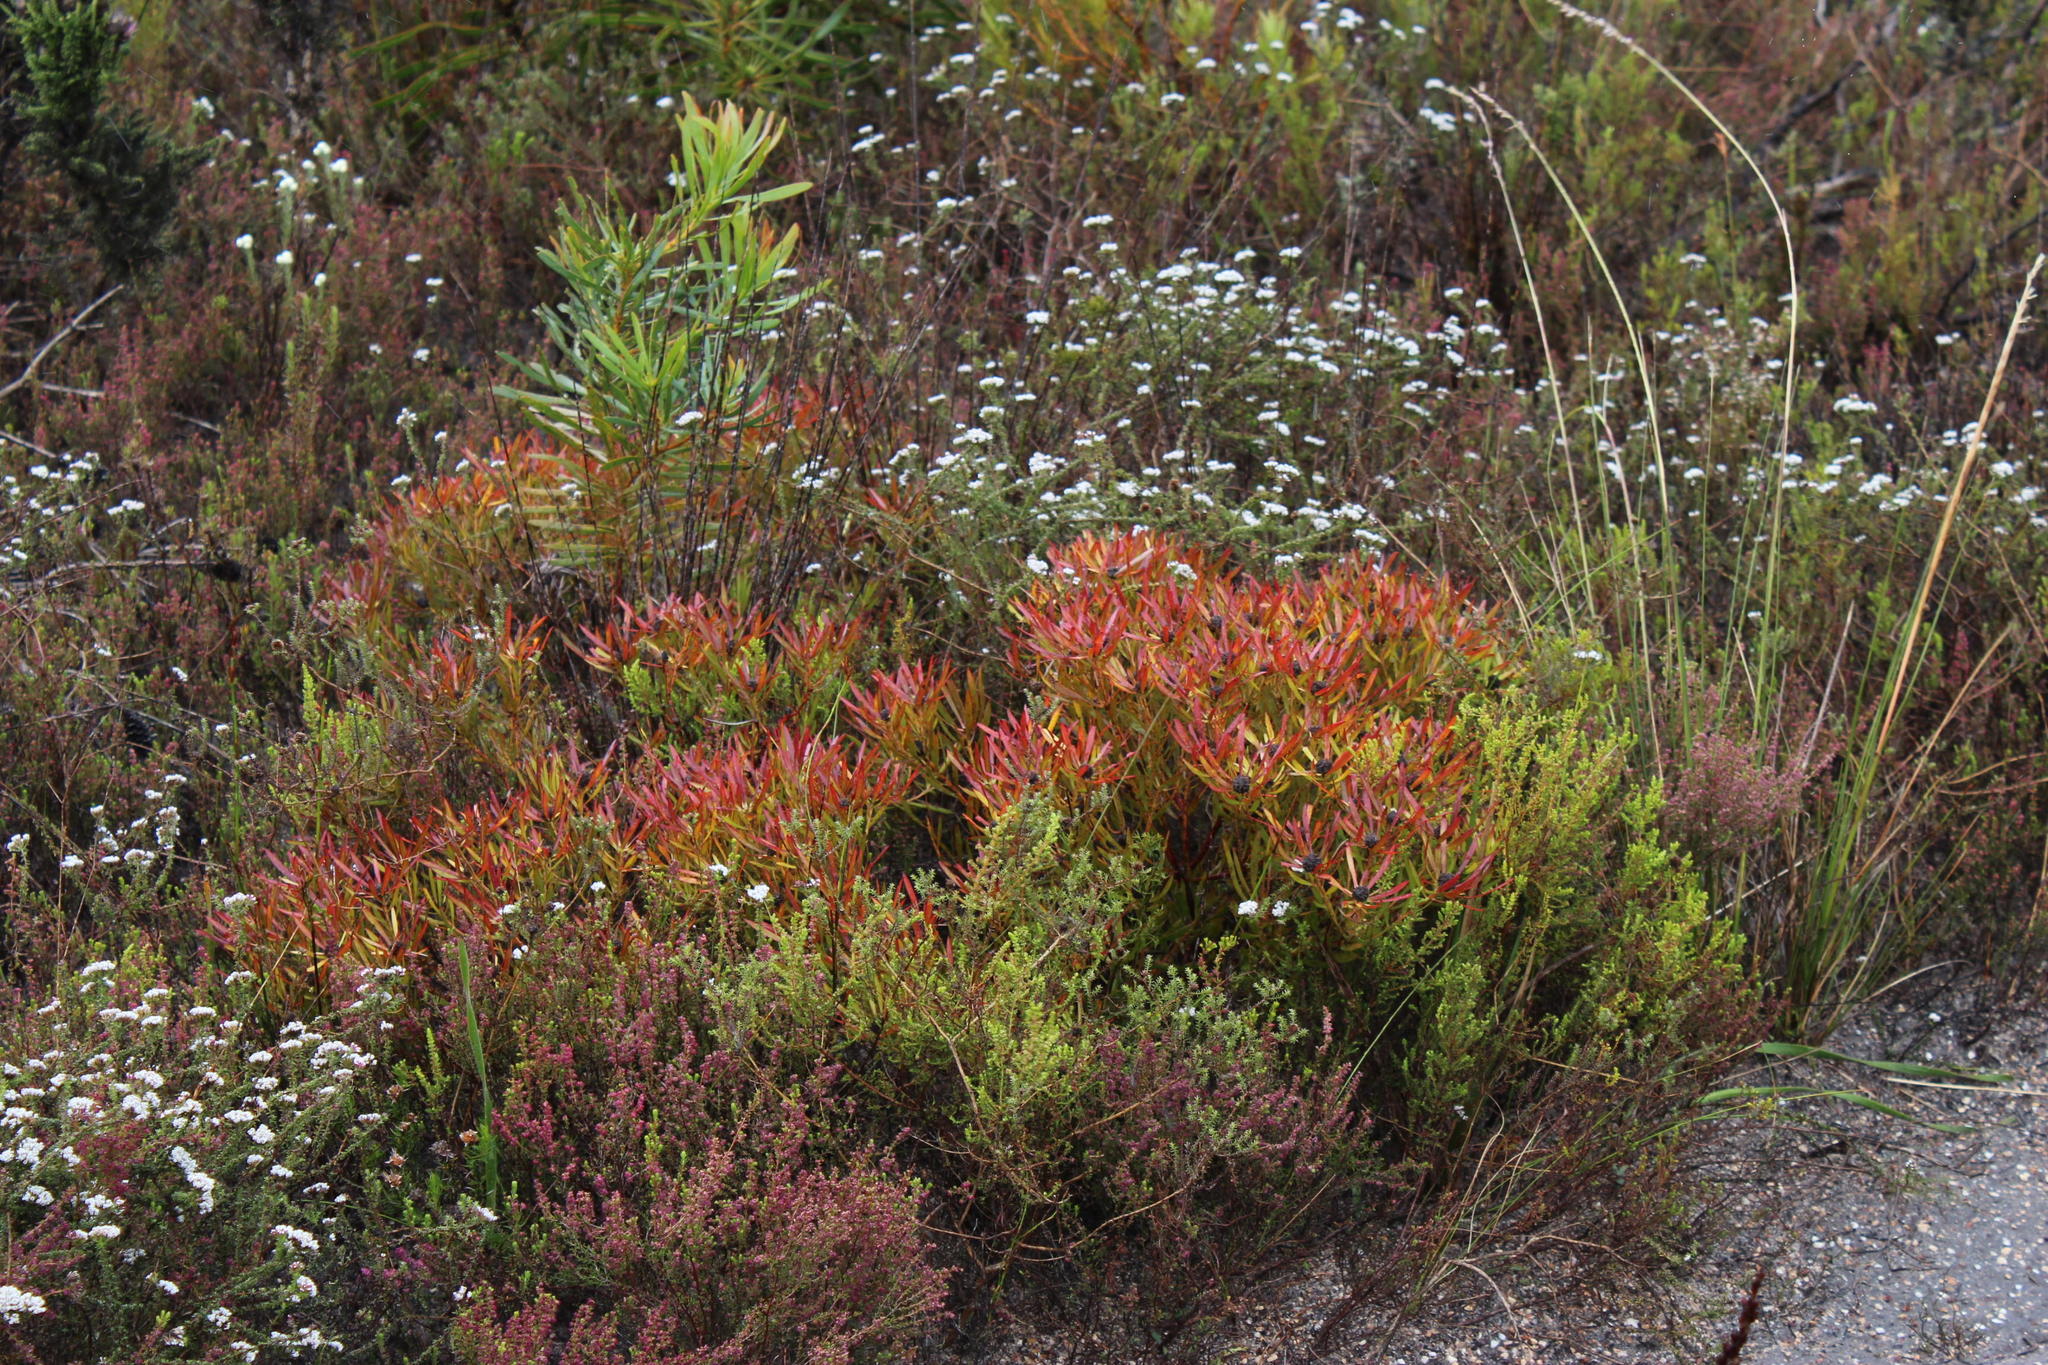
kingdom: Plantae
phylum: Tracheophyta
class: Magnoliopsida
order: Proteales
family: Proteaceae
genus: Leucadendron
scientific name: Leucadendron salignum
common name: Common sunshine conebush
